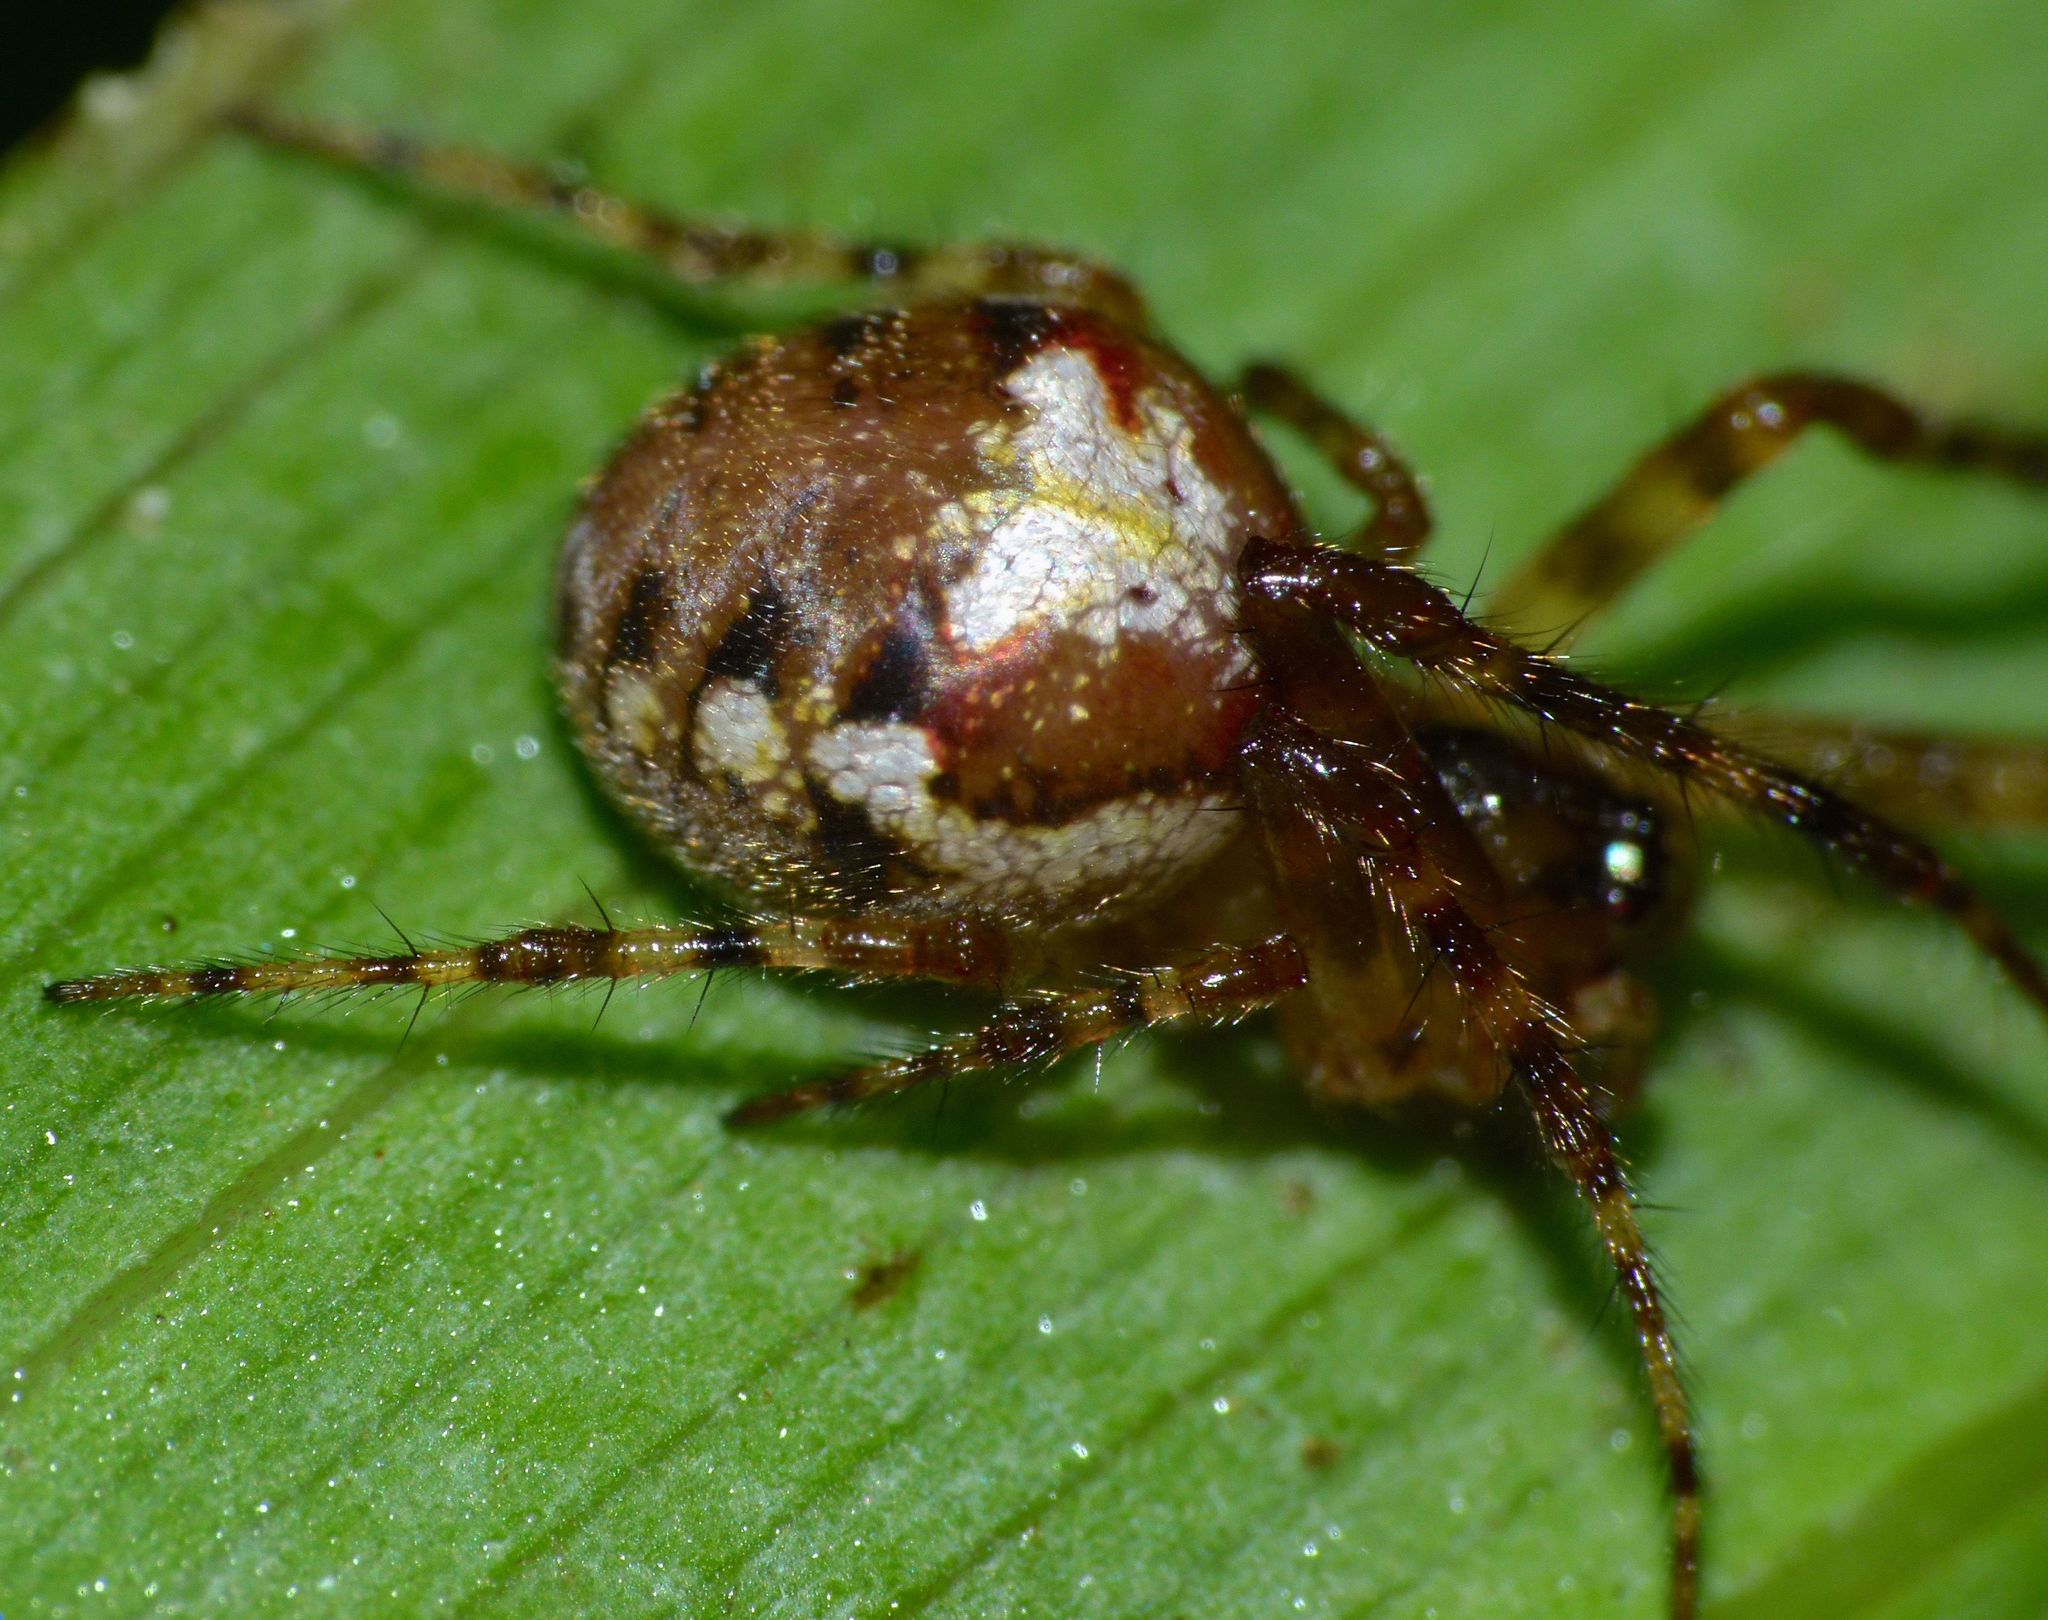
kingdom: Animalia
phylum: Arthropoda
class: Arachnida
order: Araneae
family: Tetragnathidae
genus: Taraire
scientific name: Taraire rufolineata
